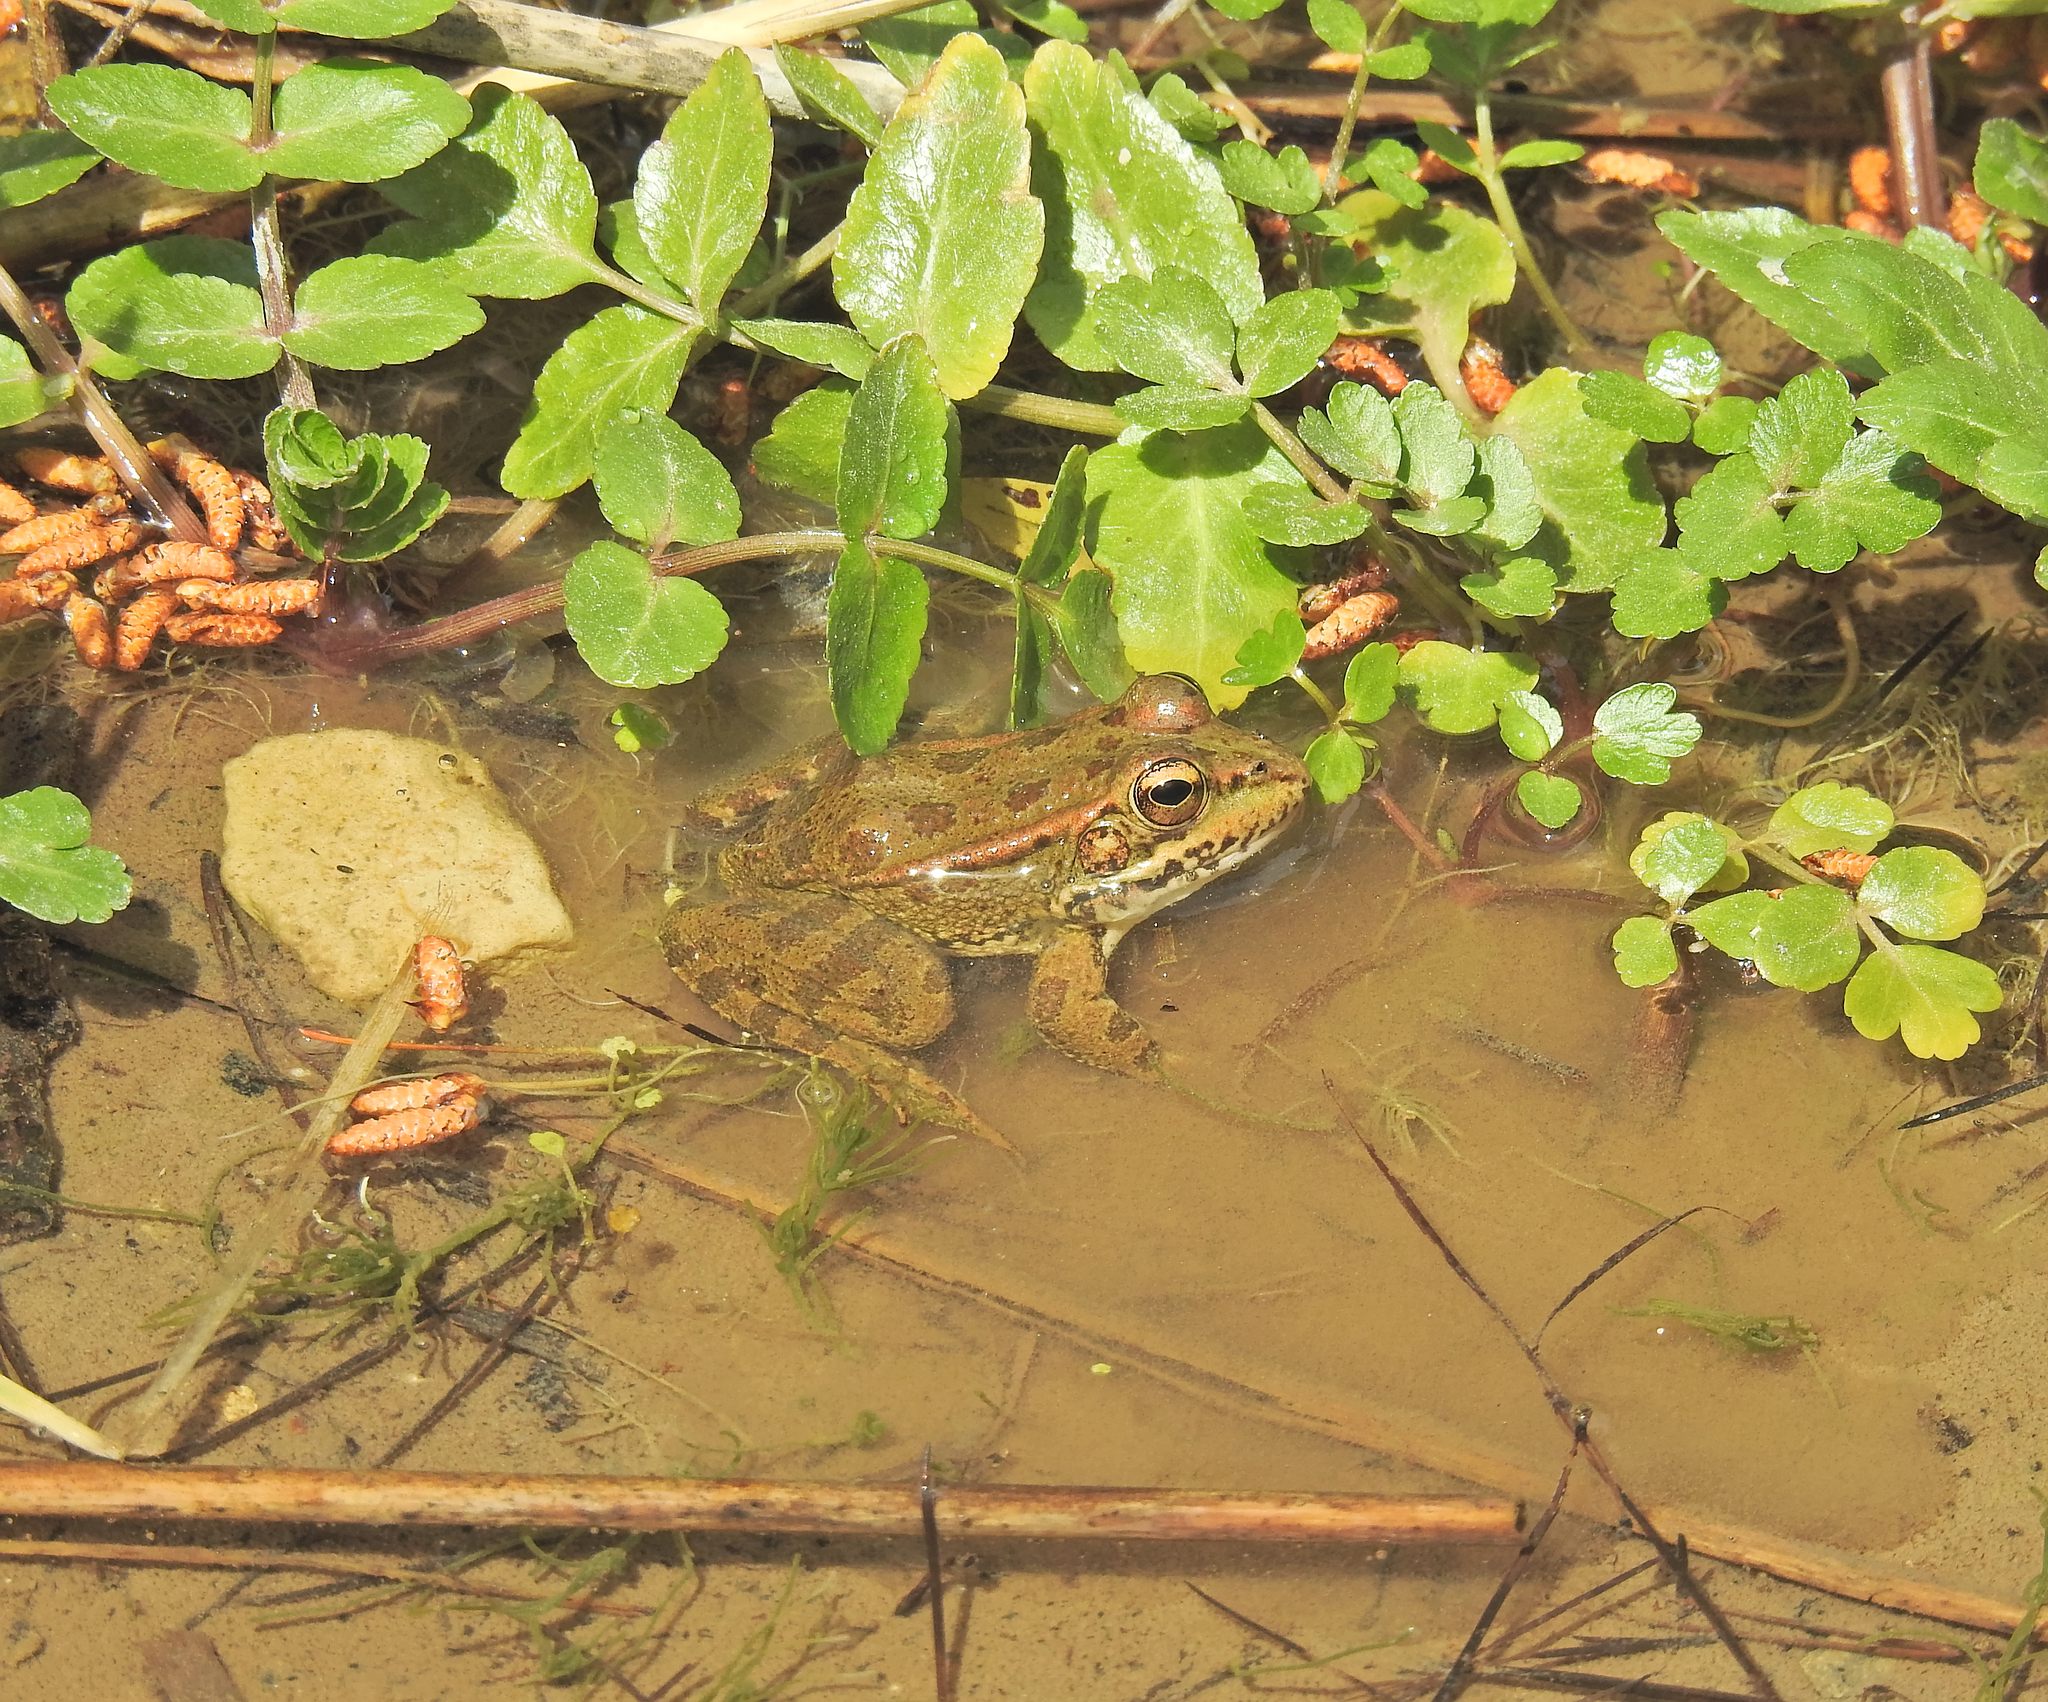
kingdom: Animalia
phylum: Chordata
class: Amphibia
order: Anura
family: Ranidae
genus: Pelophylax
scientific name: Pelophylax perezi
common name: Perez's frog
